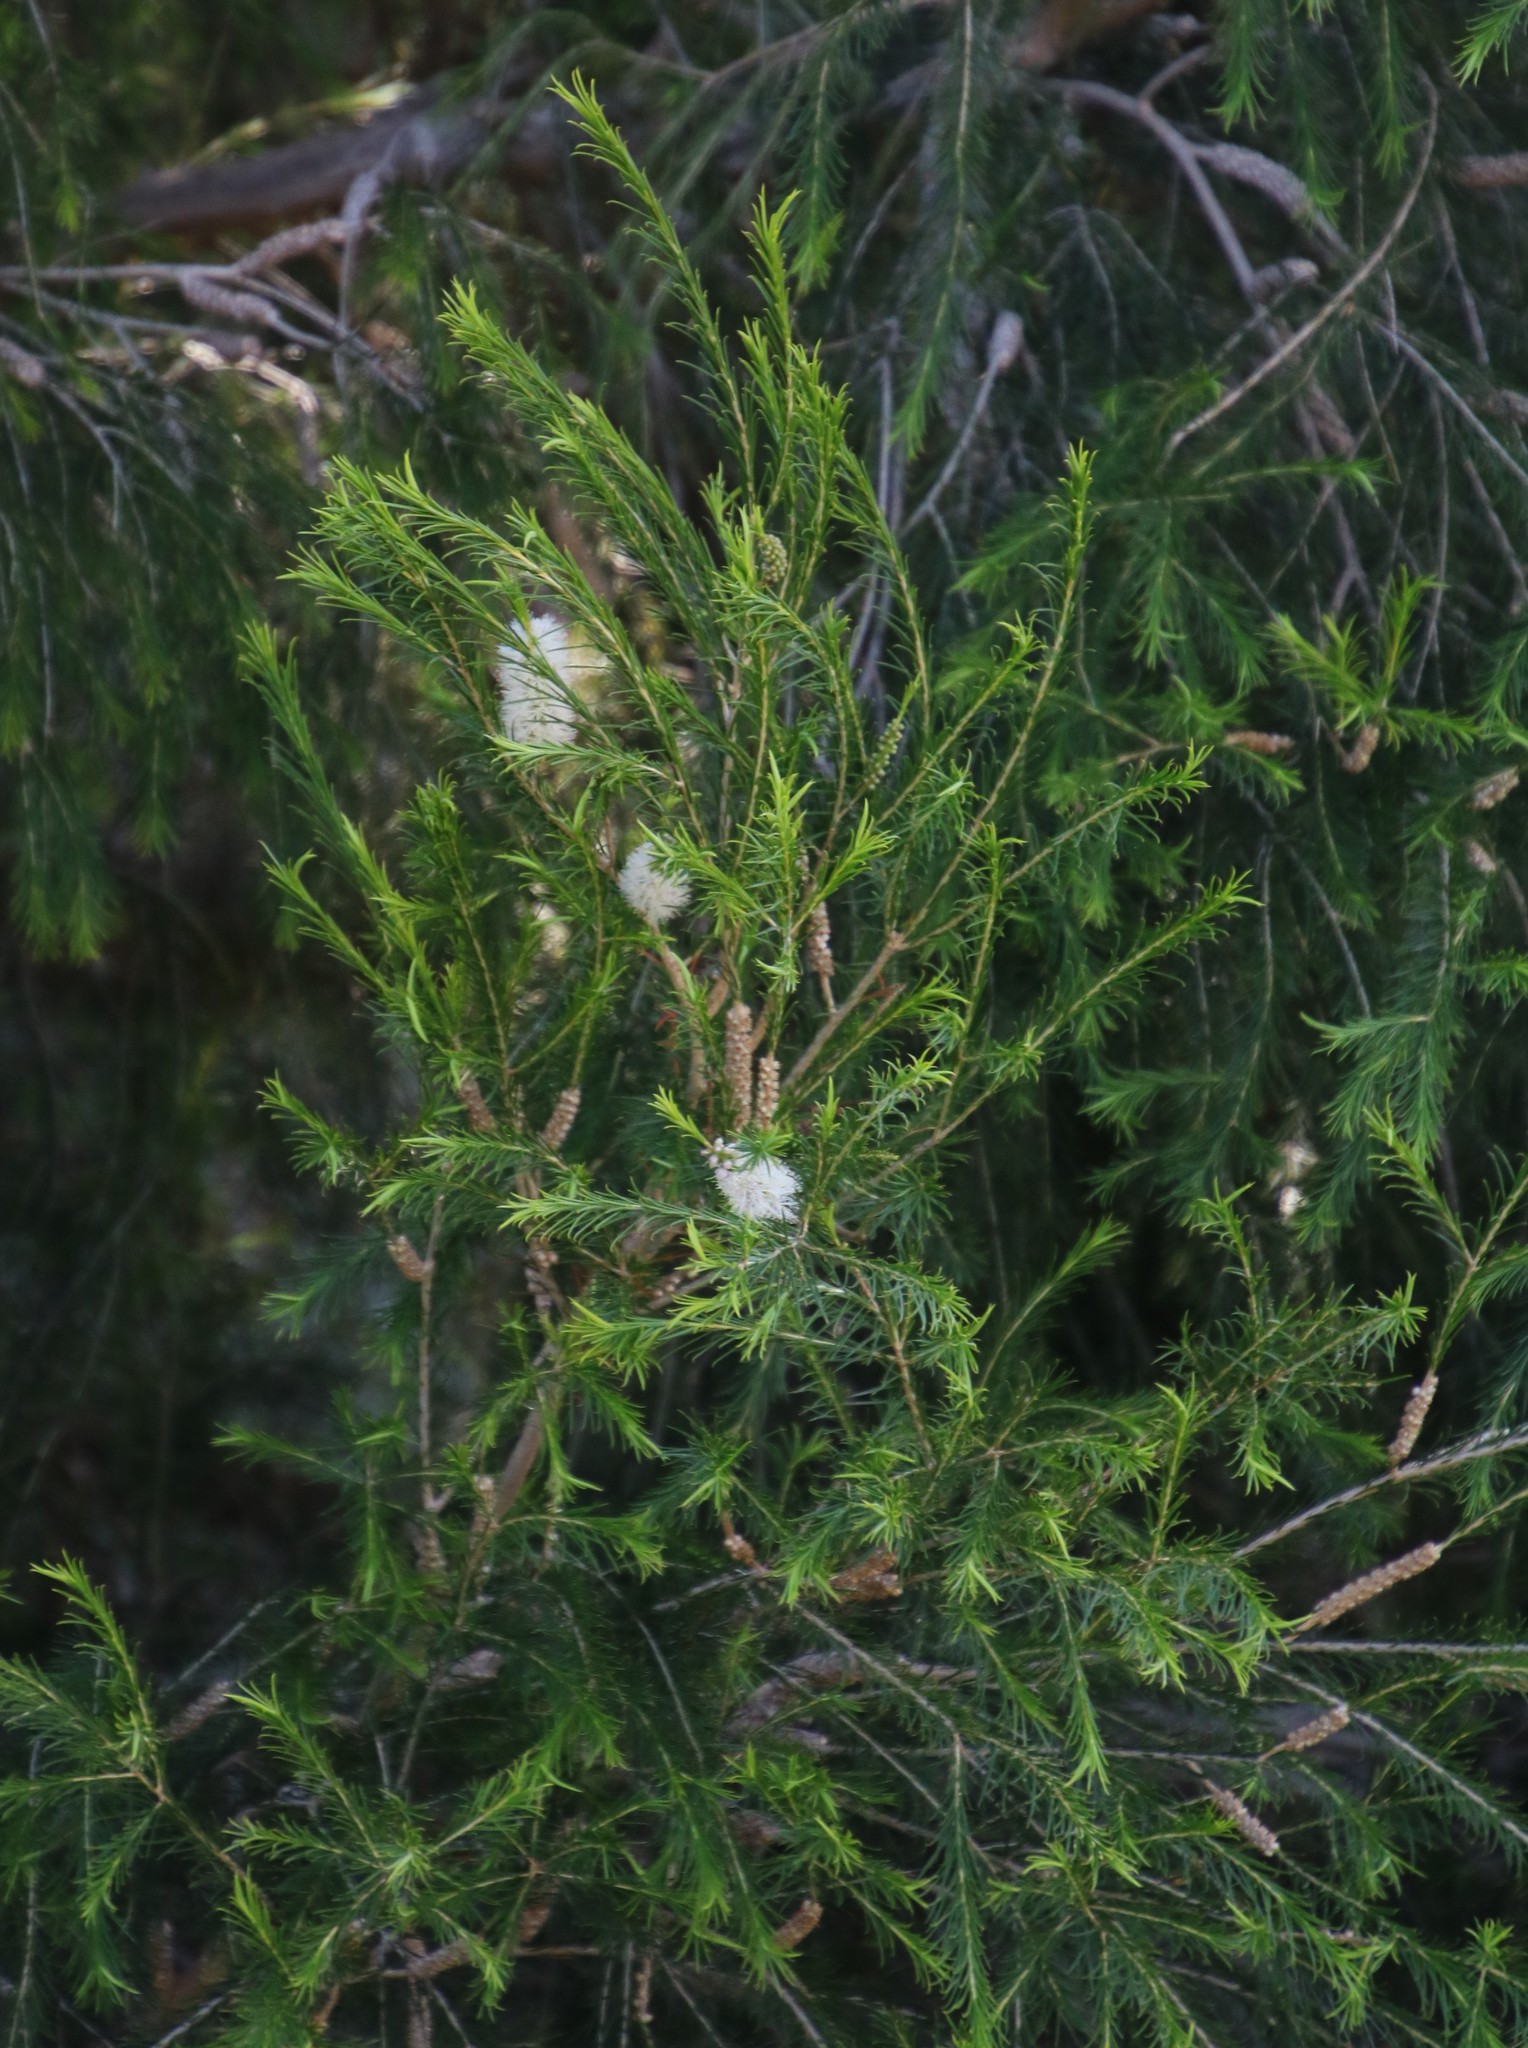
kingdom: Plantae
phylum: Tracheophyta
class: Magnoliopsida
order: Myrtales
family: Myrtaceae
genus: Melaleuca
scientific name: Melaleuca armillaris
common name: Bracelet honey myrtle
